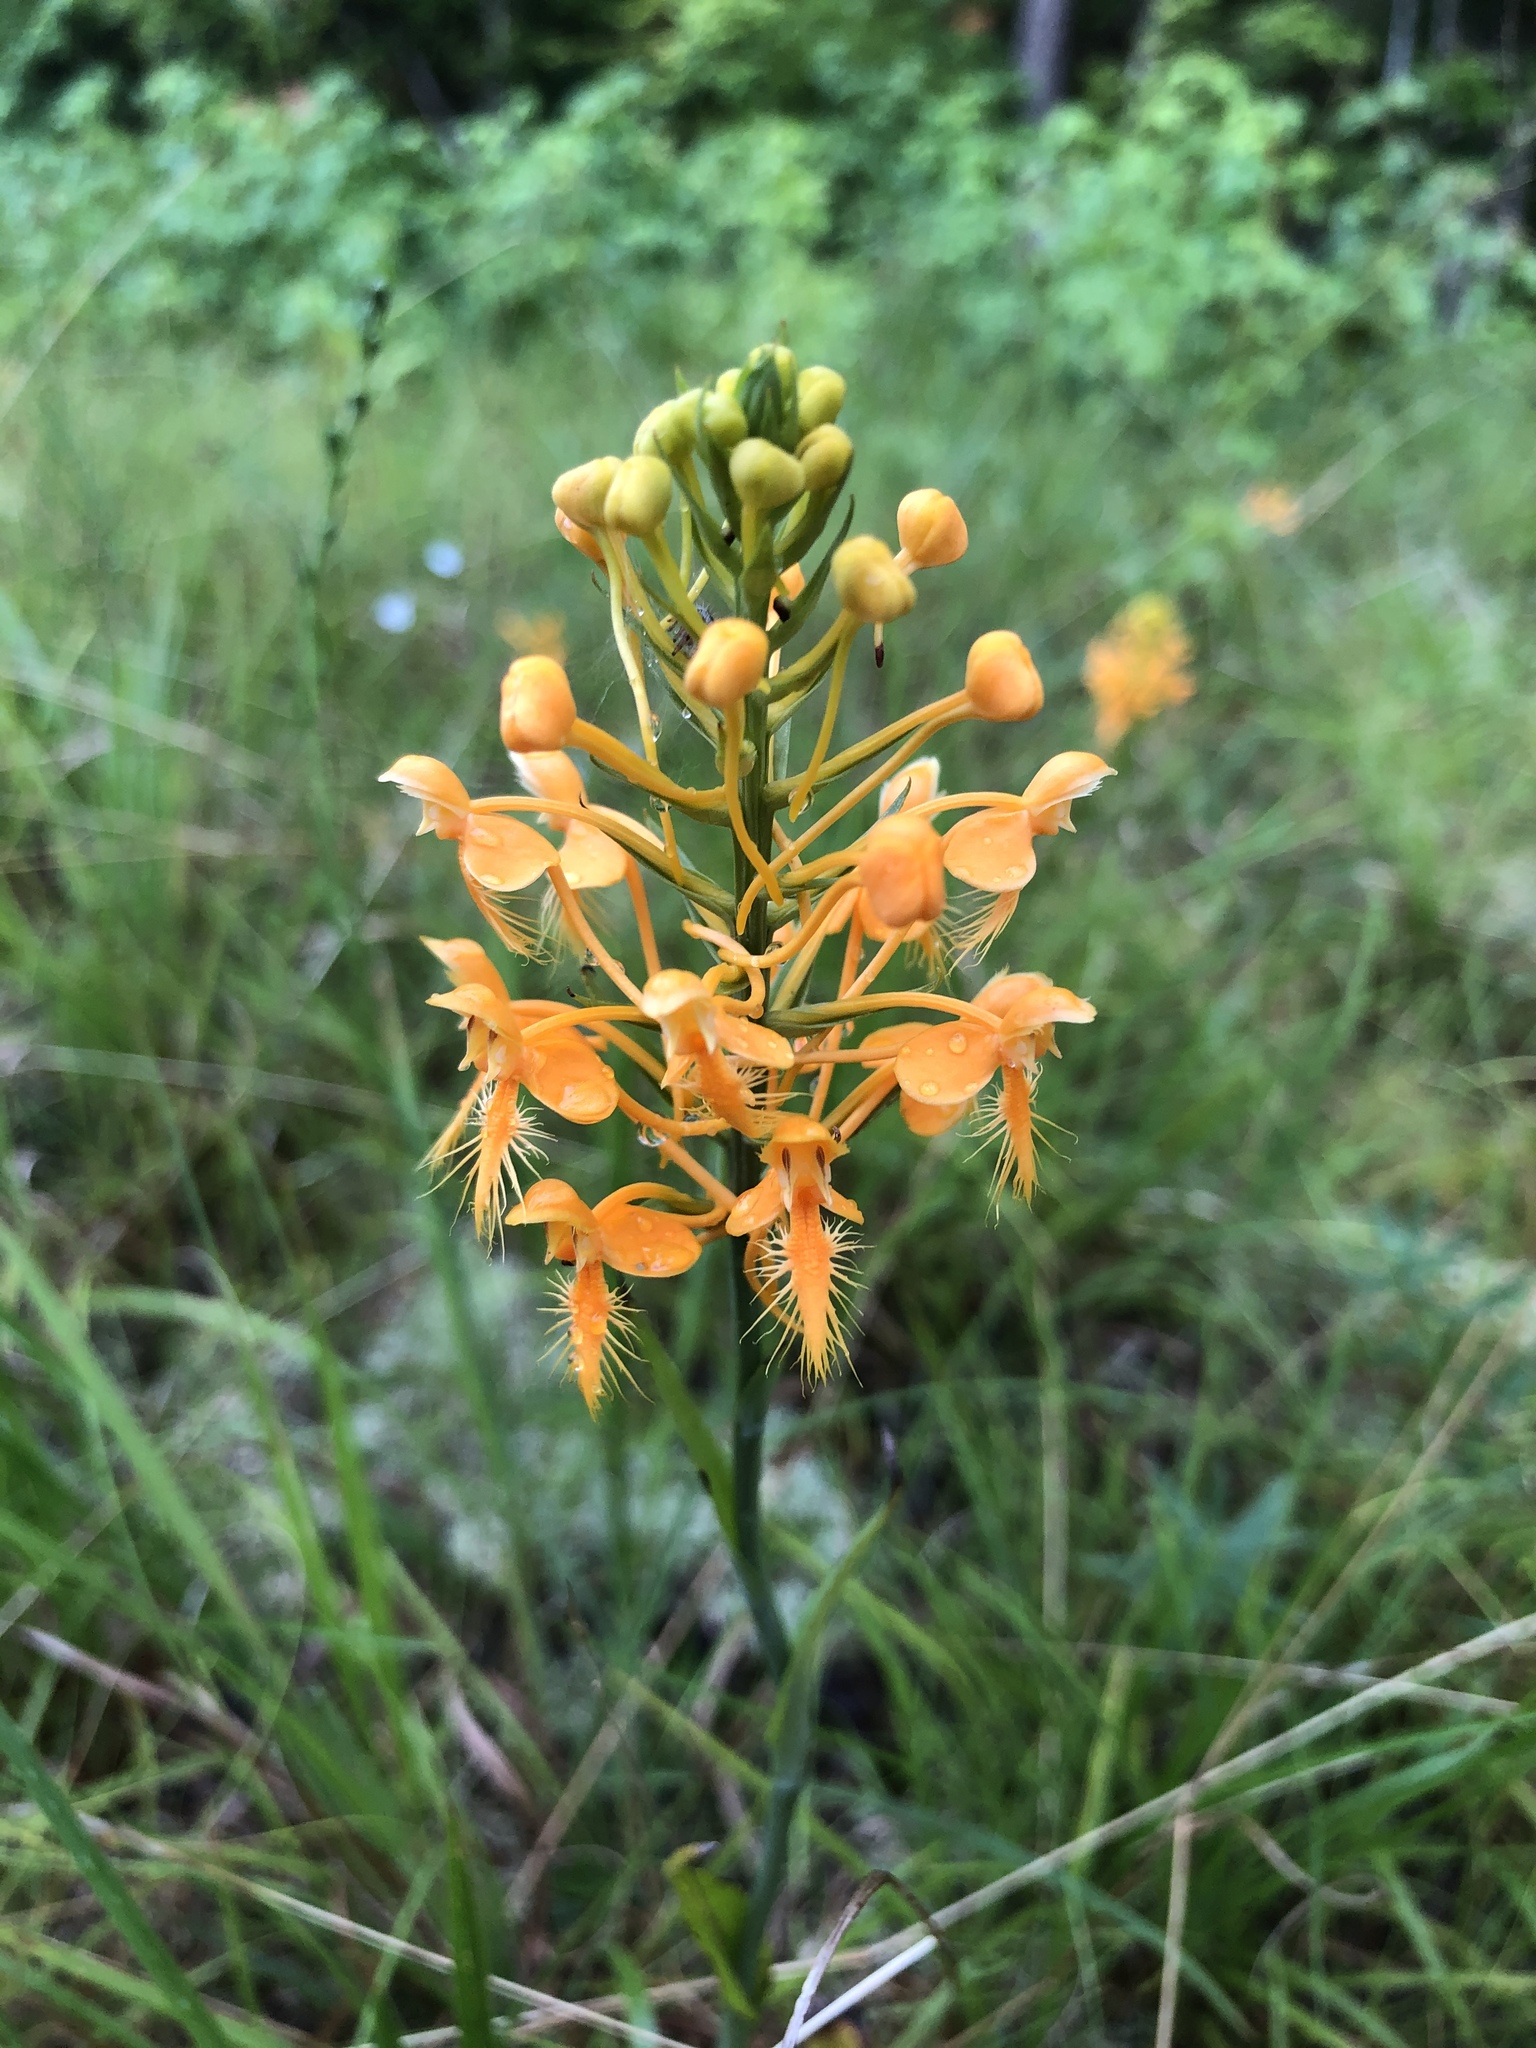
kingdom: Plantae
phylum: Tracheophyta
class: Liliopsida
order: Asparagales
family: Orchidaceae
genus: Platanthera
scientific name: Platanthera ciliaris
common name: Yellow fringed orchid
